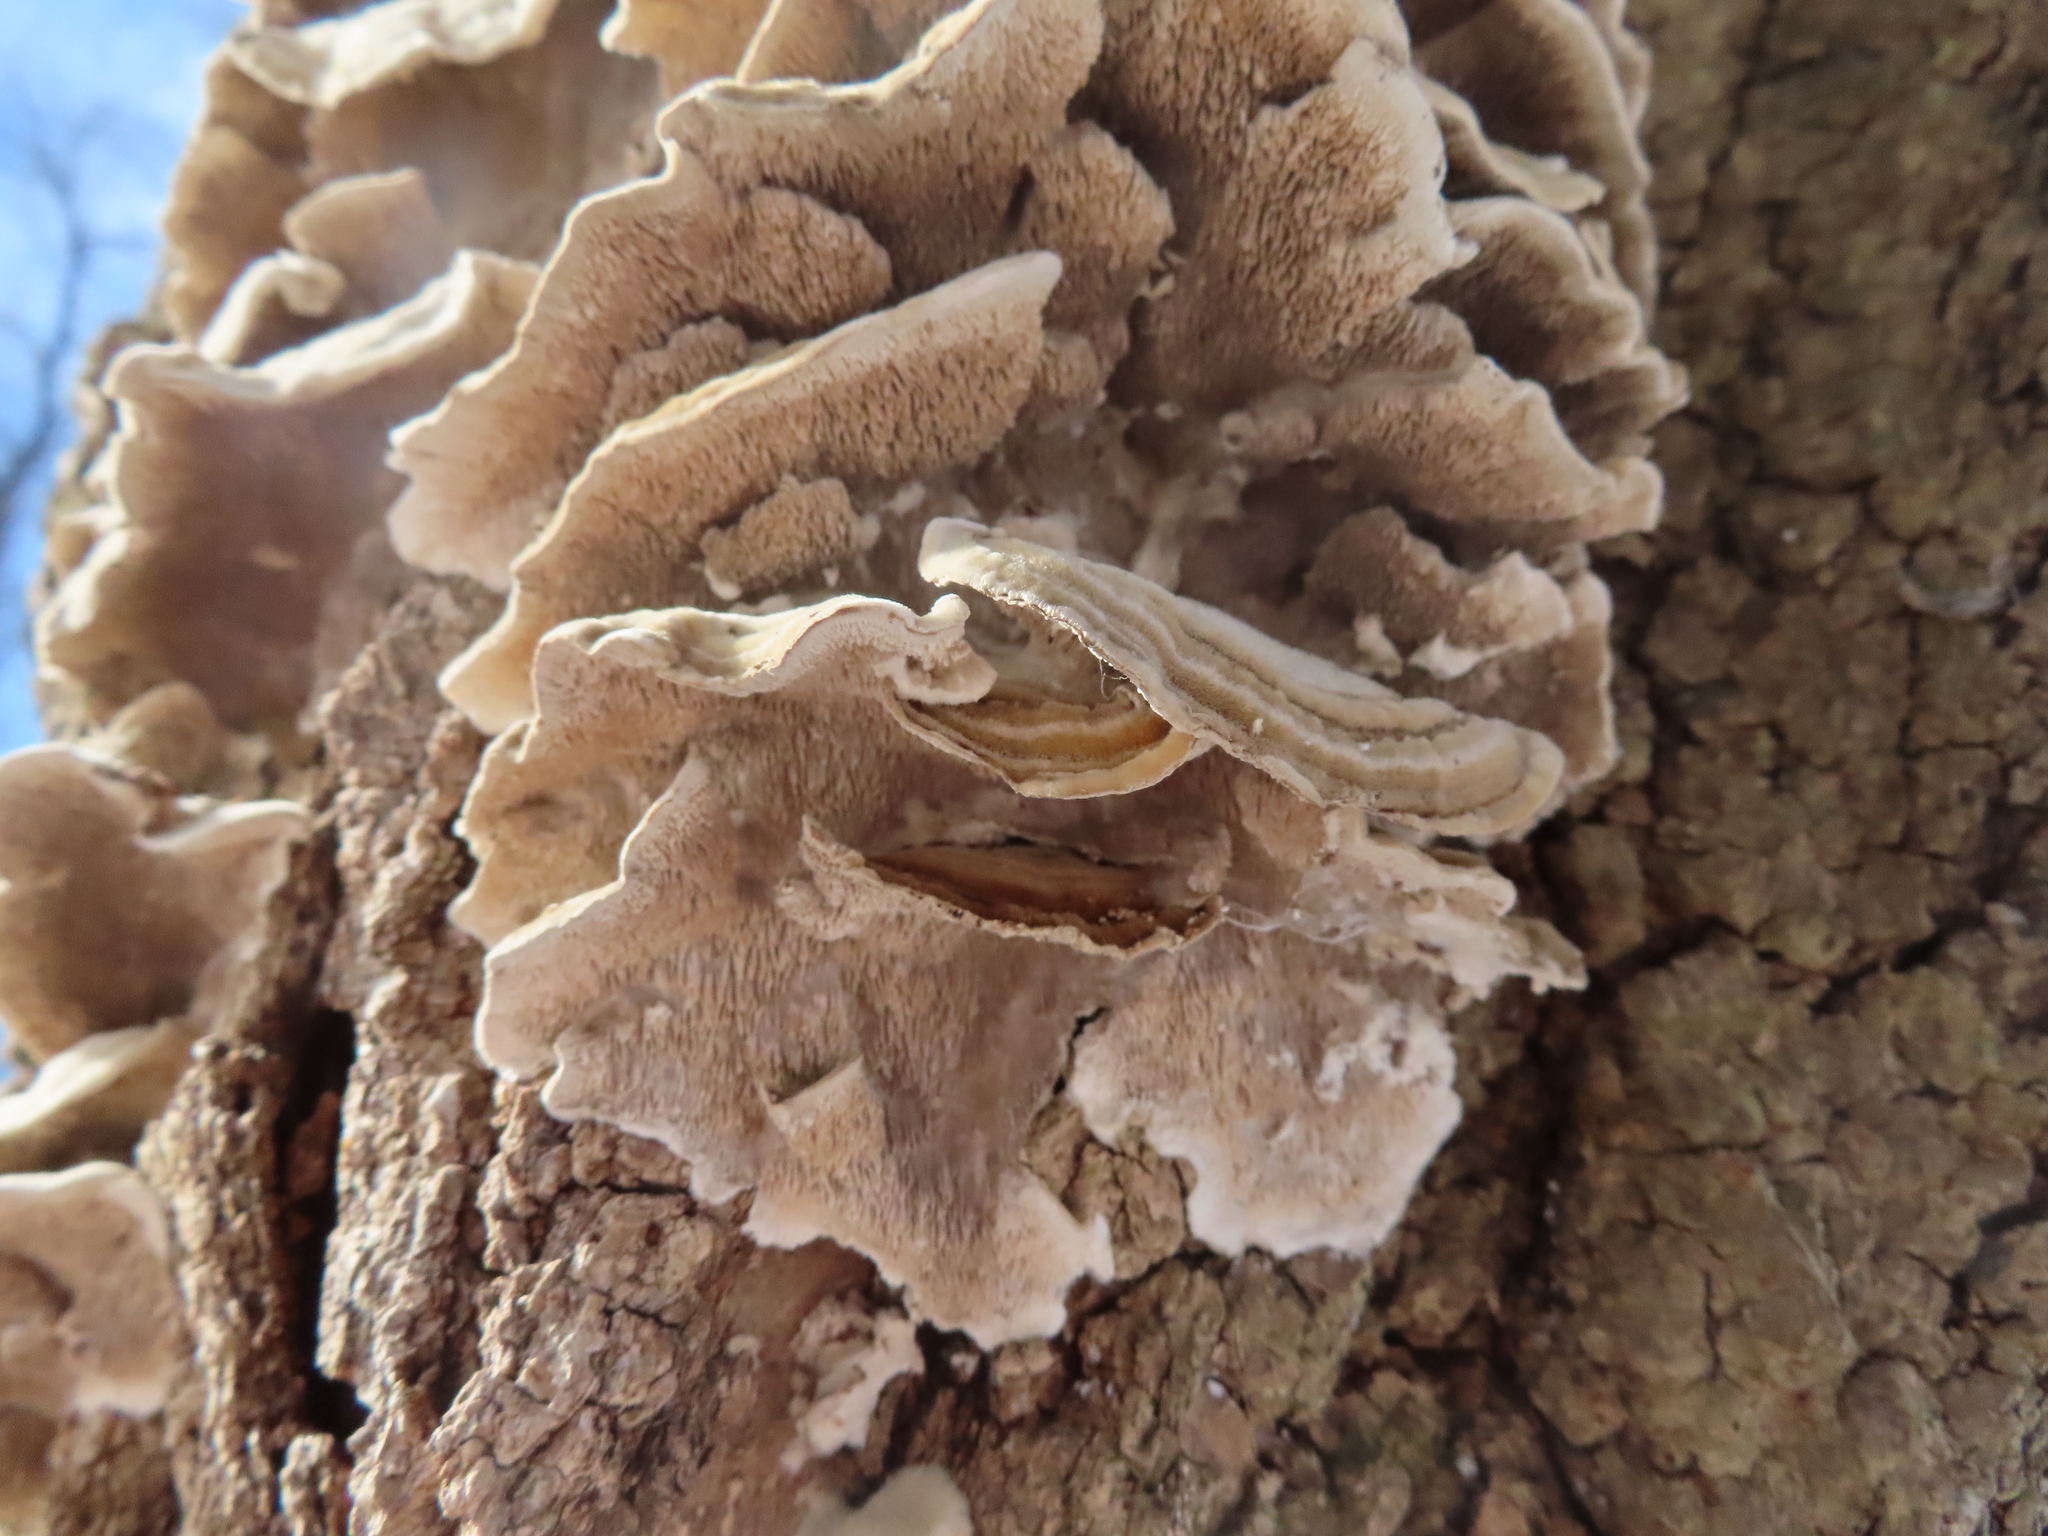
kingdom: Fungi
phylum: Basidiomycota
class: Agaricomycetes
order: Polyporales
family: Cerrenaceae
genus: Cerrena
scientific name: Cerrena unicolor
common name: Mossy maze polypore
